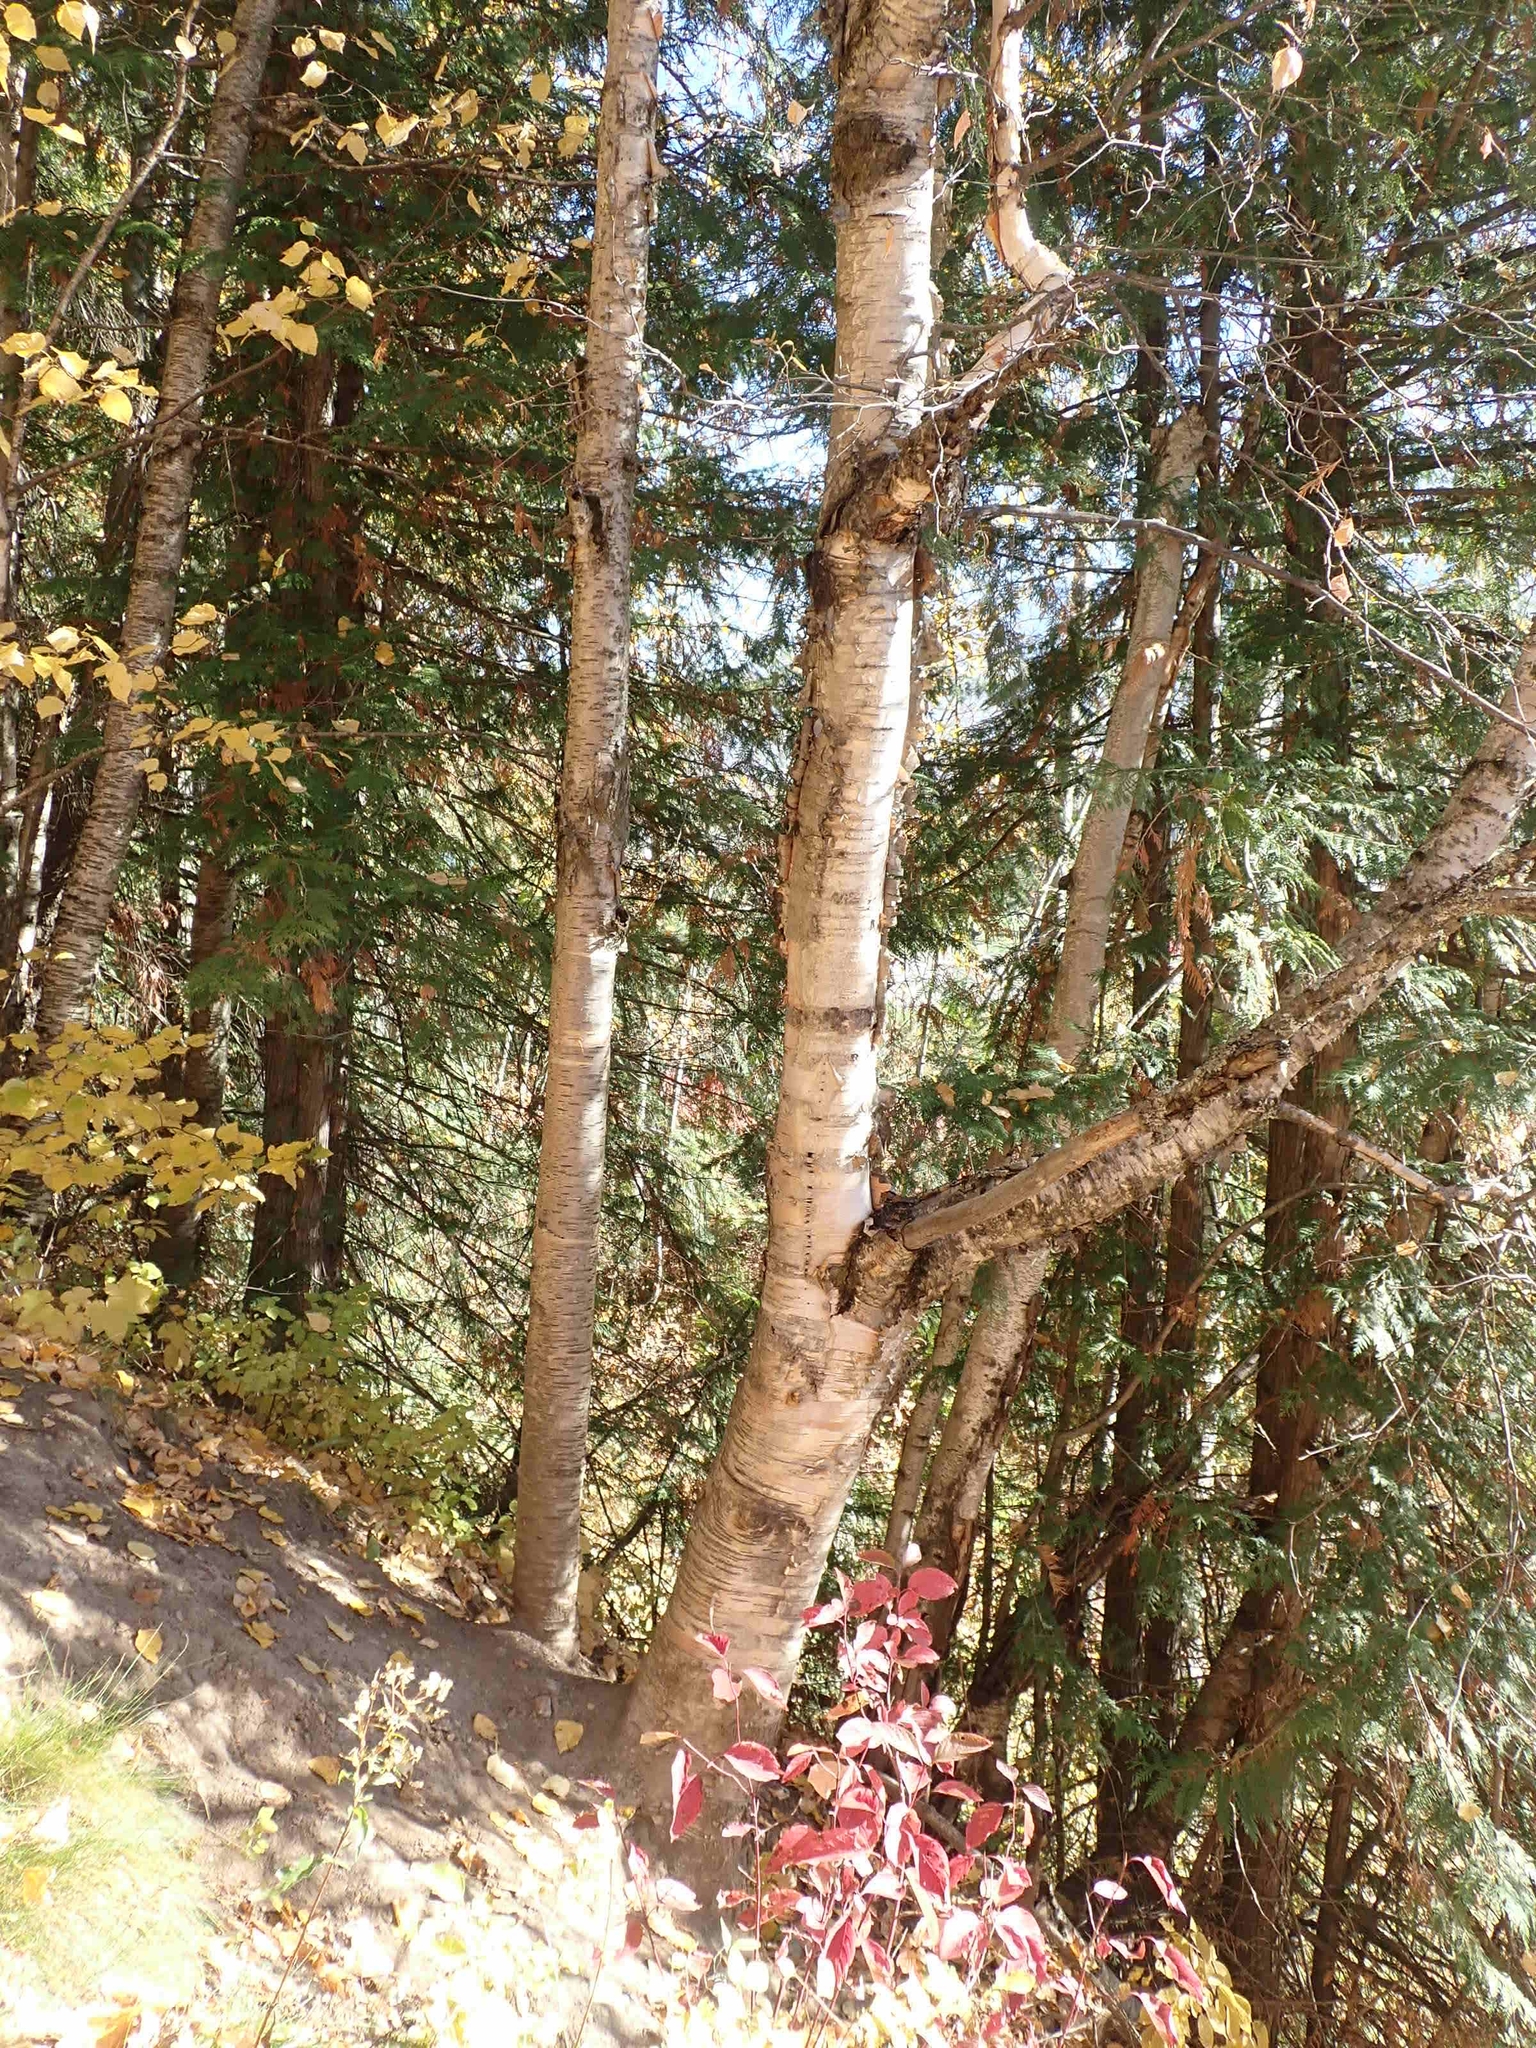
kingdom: Plantae
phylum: Tracheophyta
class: Magnoliopsida
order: Fagales
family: Betulaceae
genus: Betula
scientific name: Betula papyrifera
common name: Paper birch
